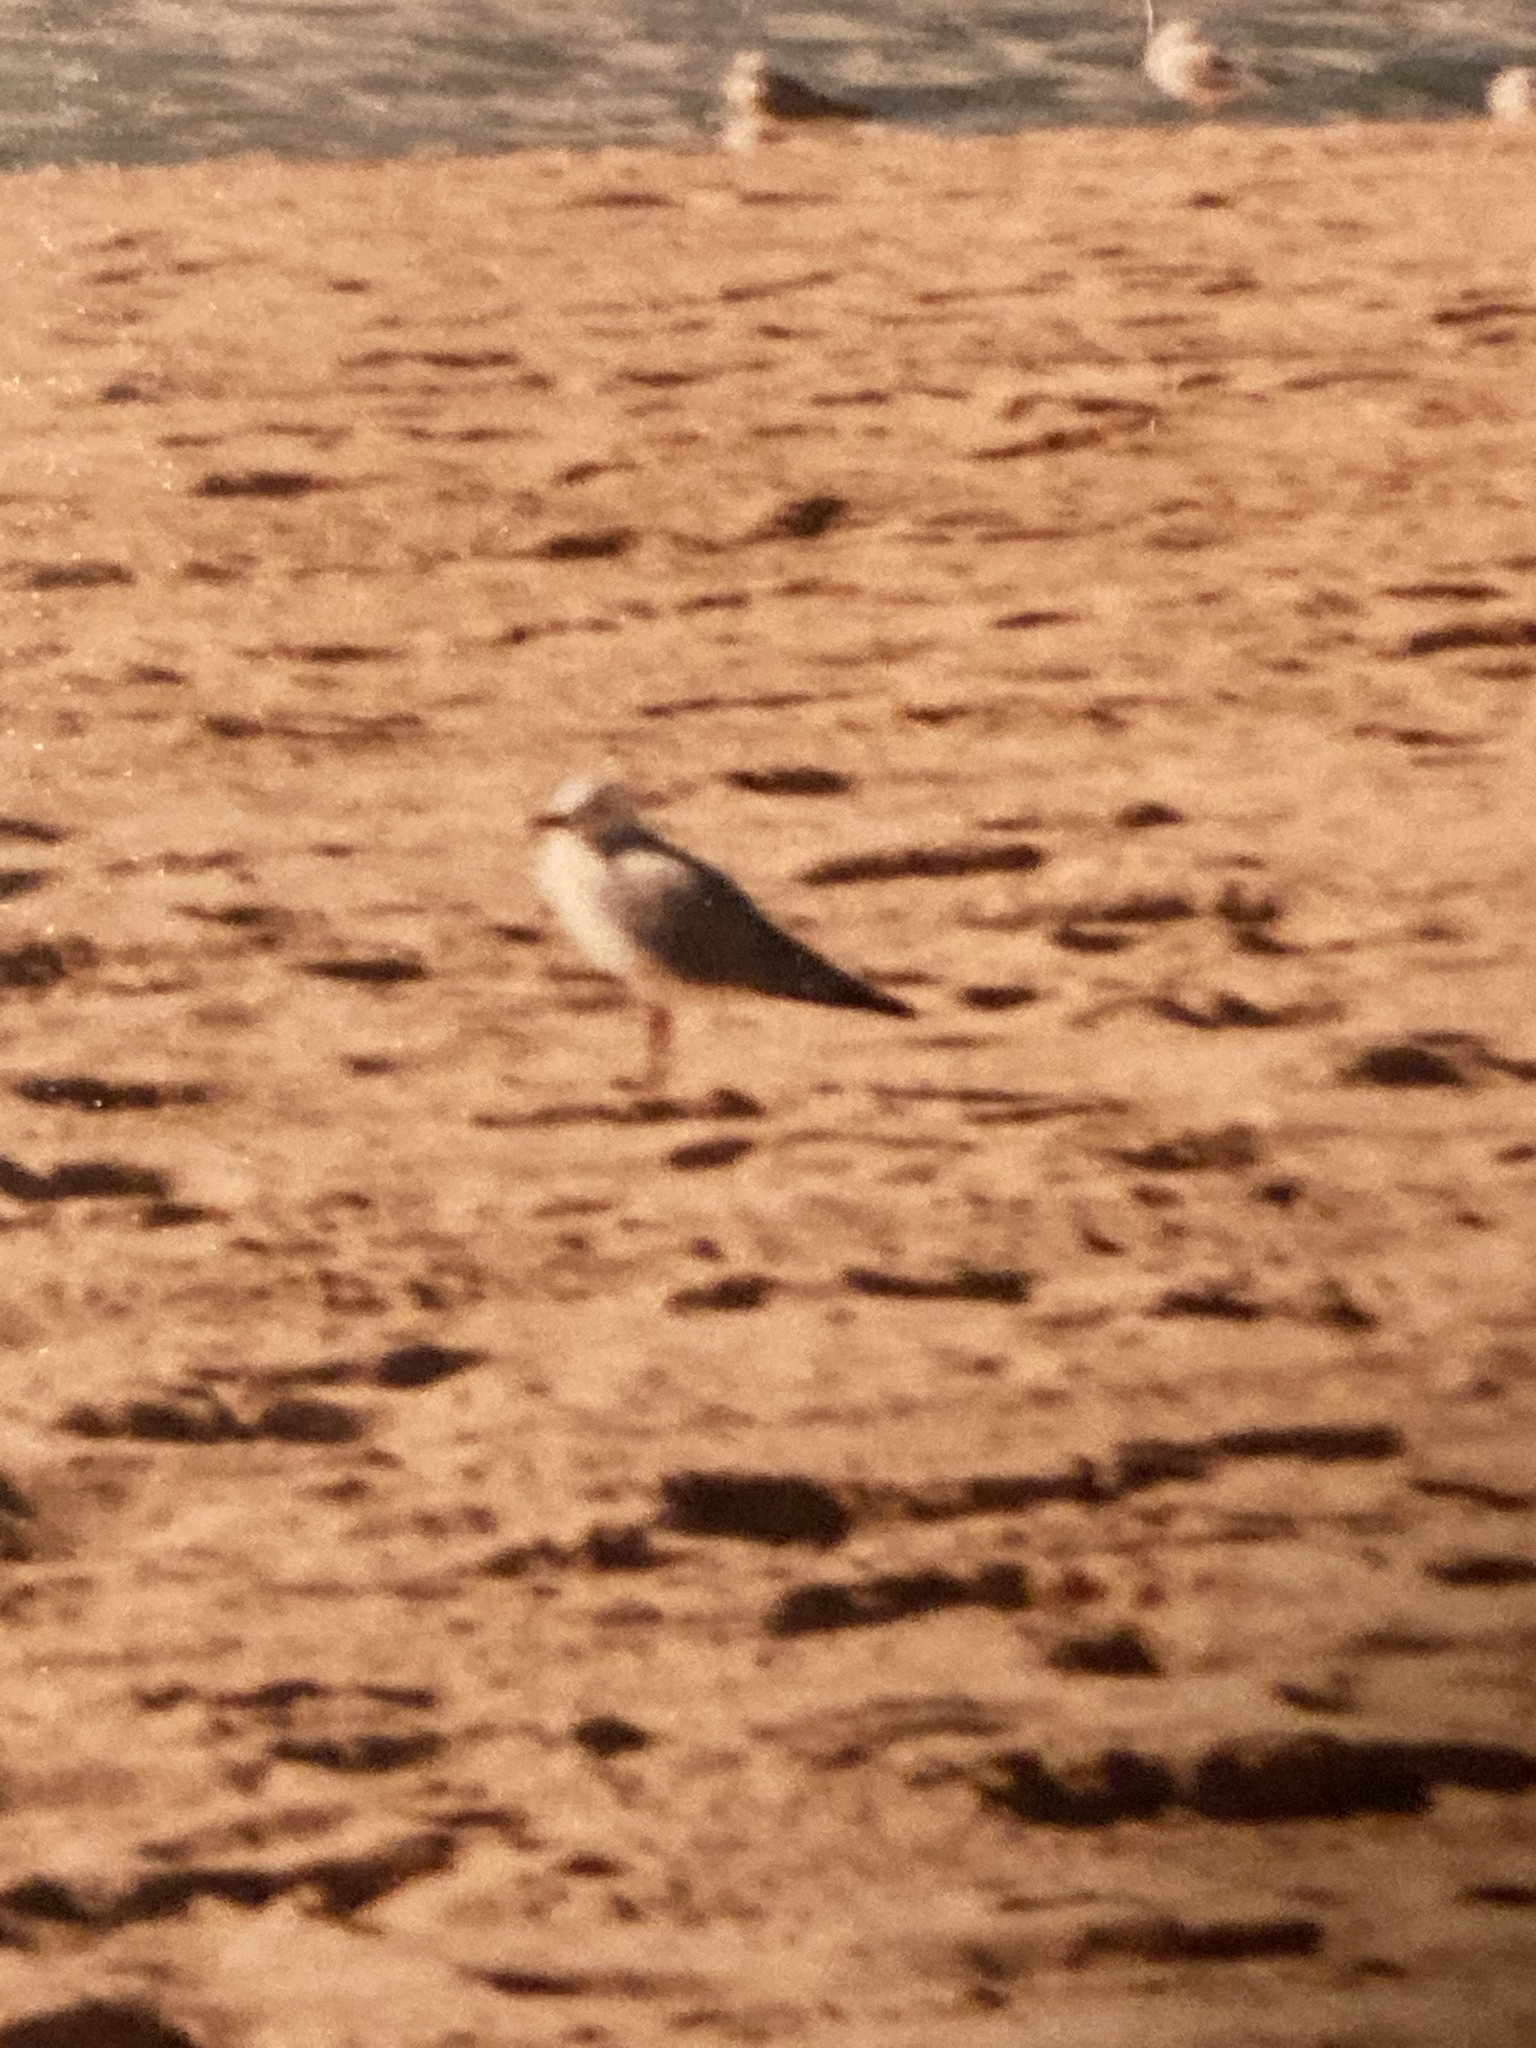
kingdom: Animalia
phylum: Chordata
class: Aves
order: Charadriiformes
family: Laridae
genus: Chroicocephalus
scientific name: Chroicocephalus novaehollandiae
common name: Silver gull
